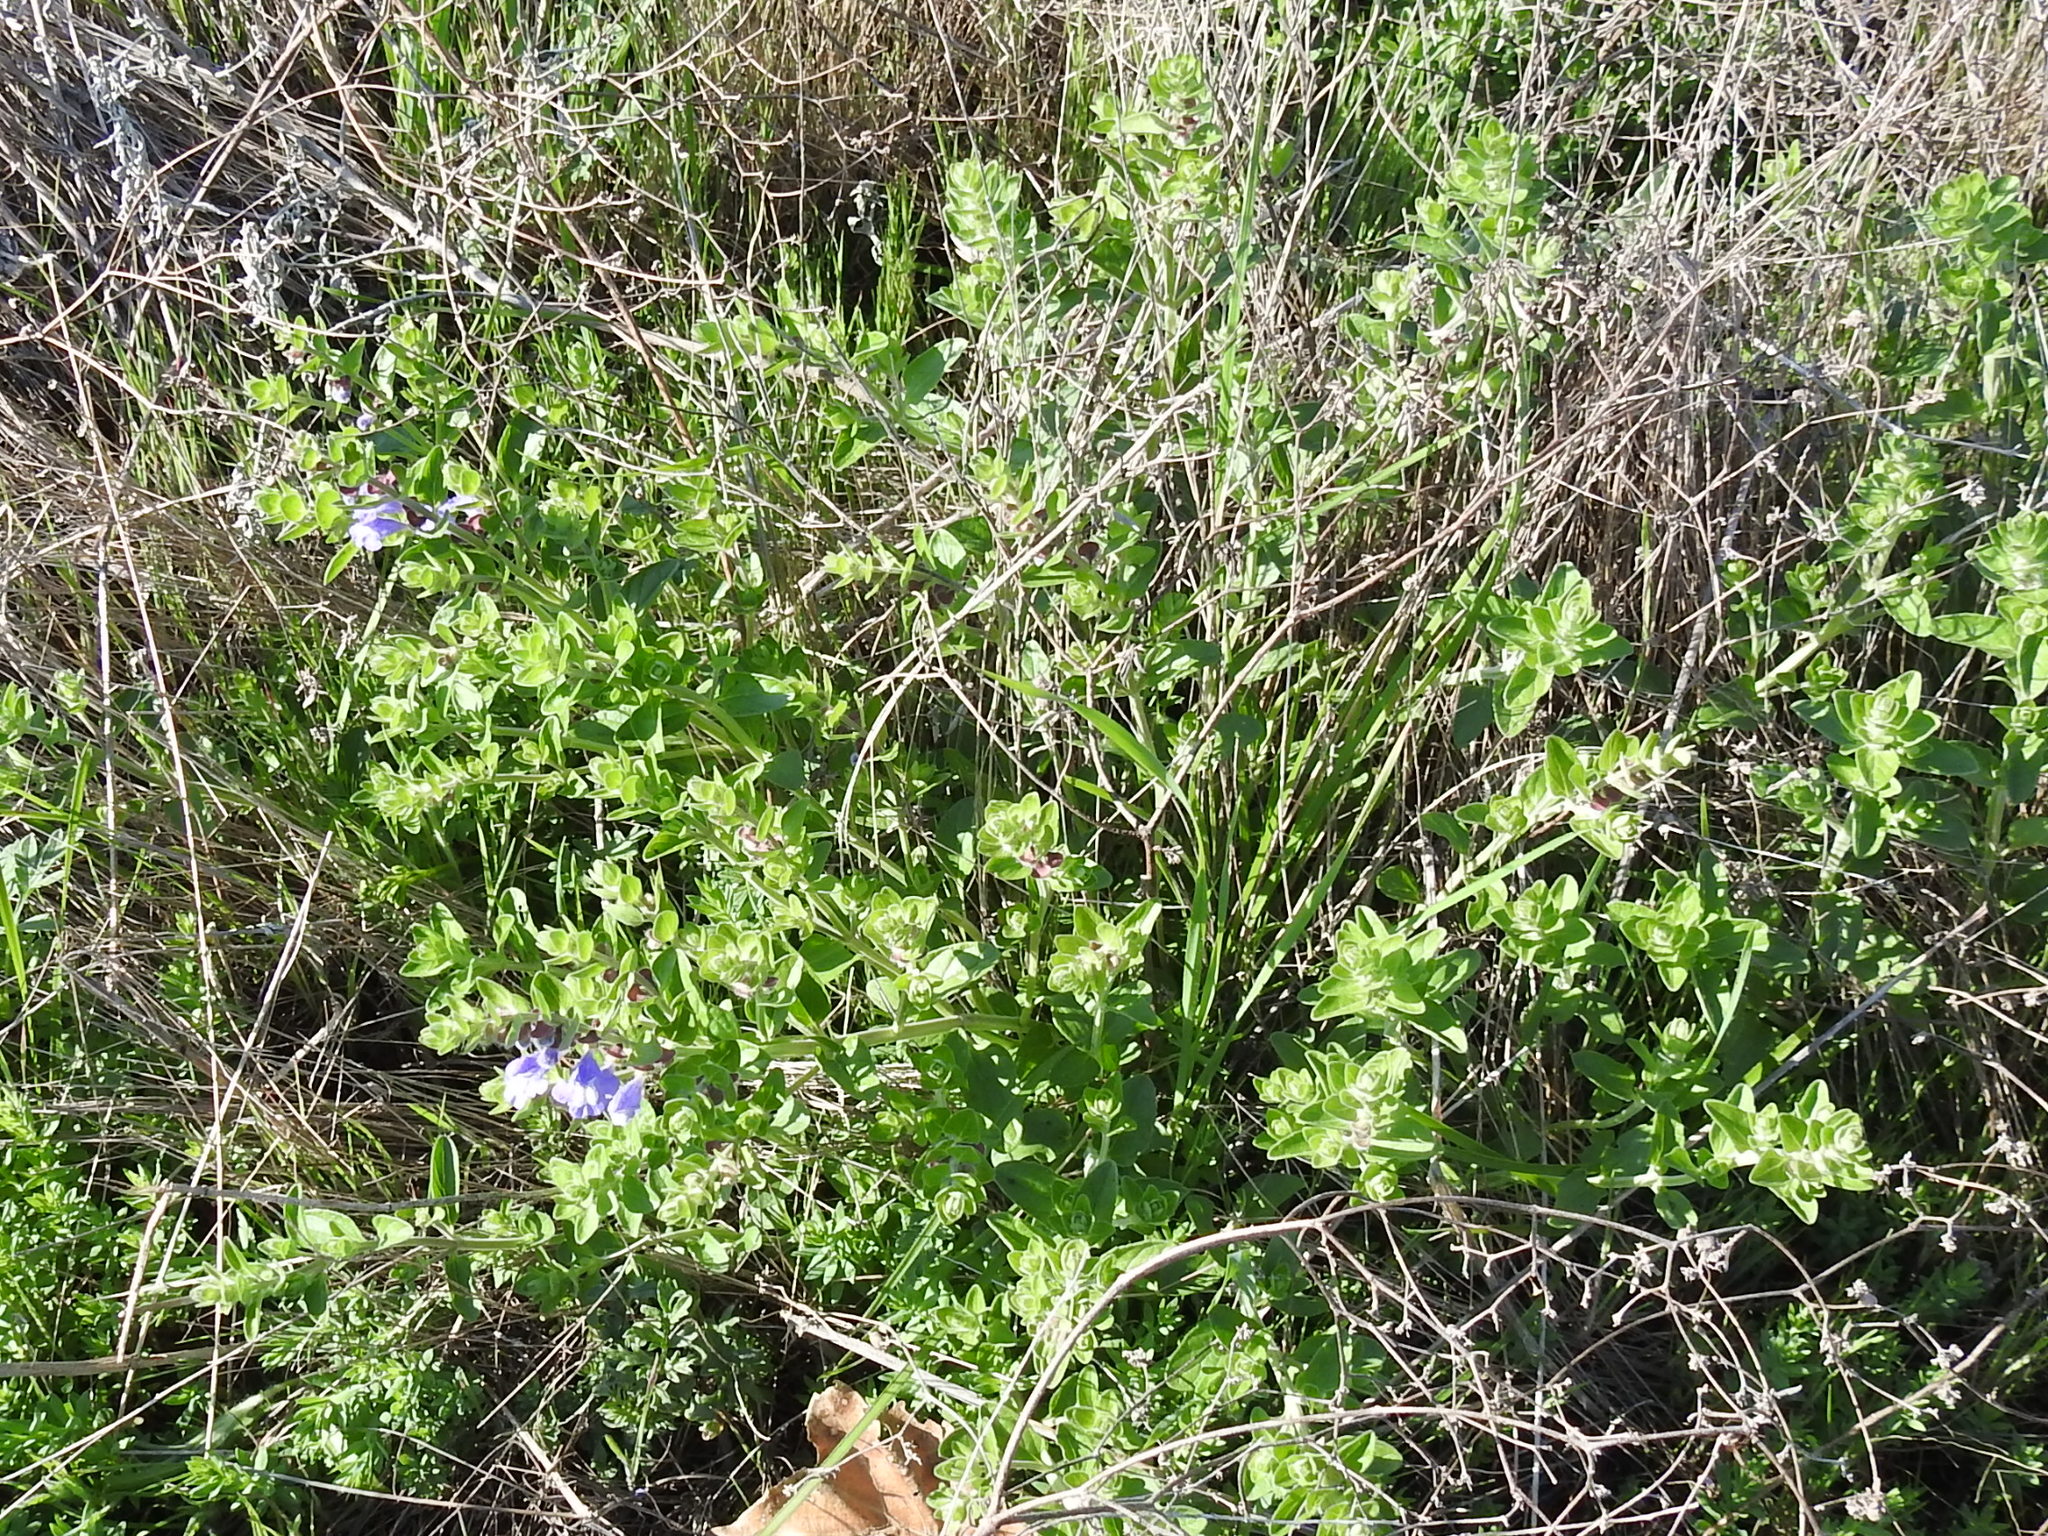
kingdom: Plantae
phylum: Tracheophyta
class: Magnoliopsida
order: Lamiales
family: Lamiaceae
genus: Scutellaria
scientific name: Scutellaria drummondii
